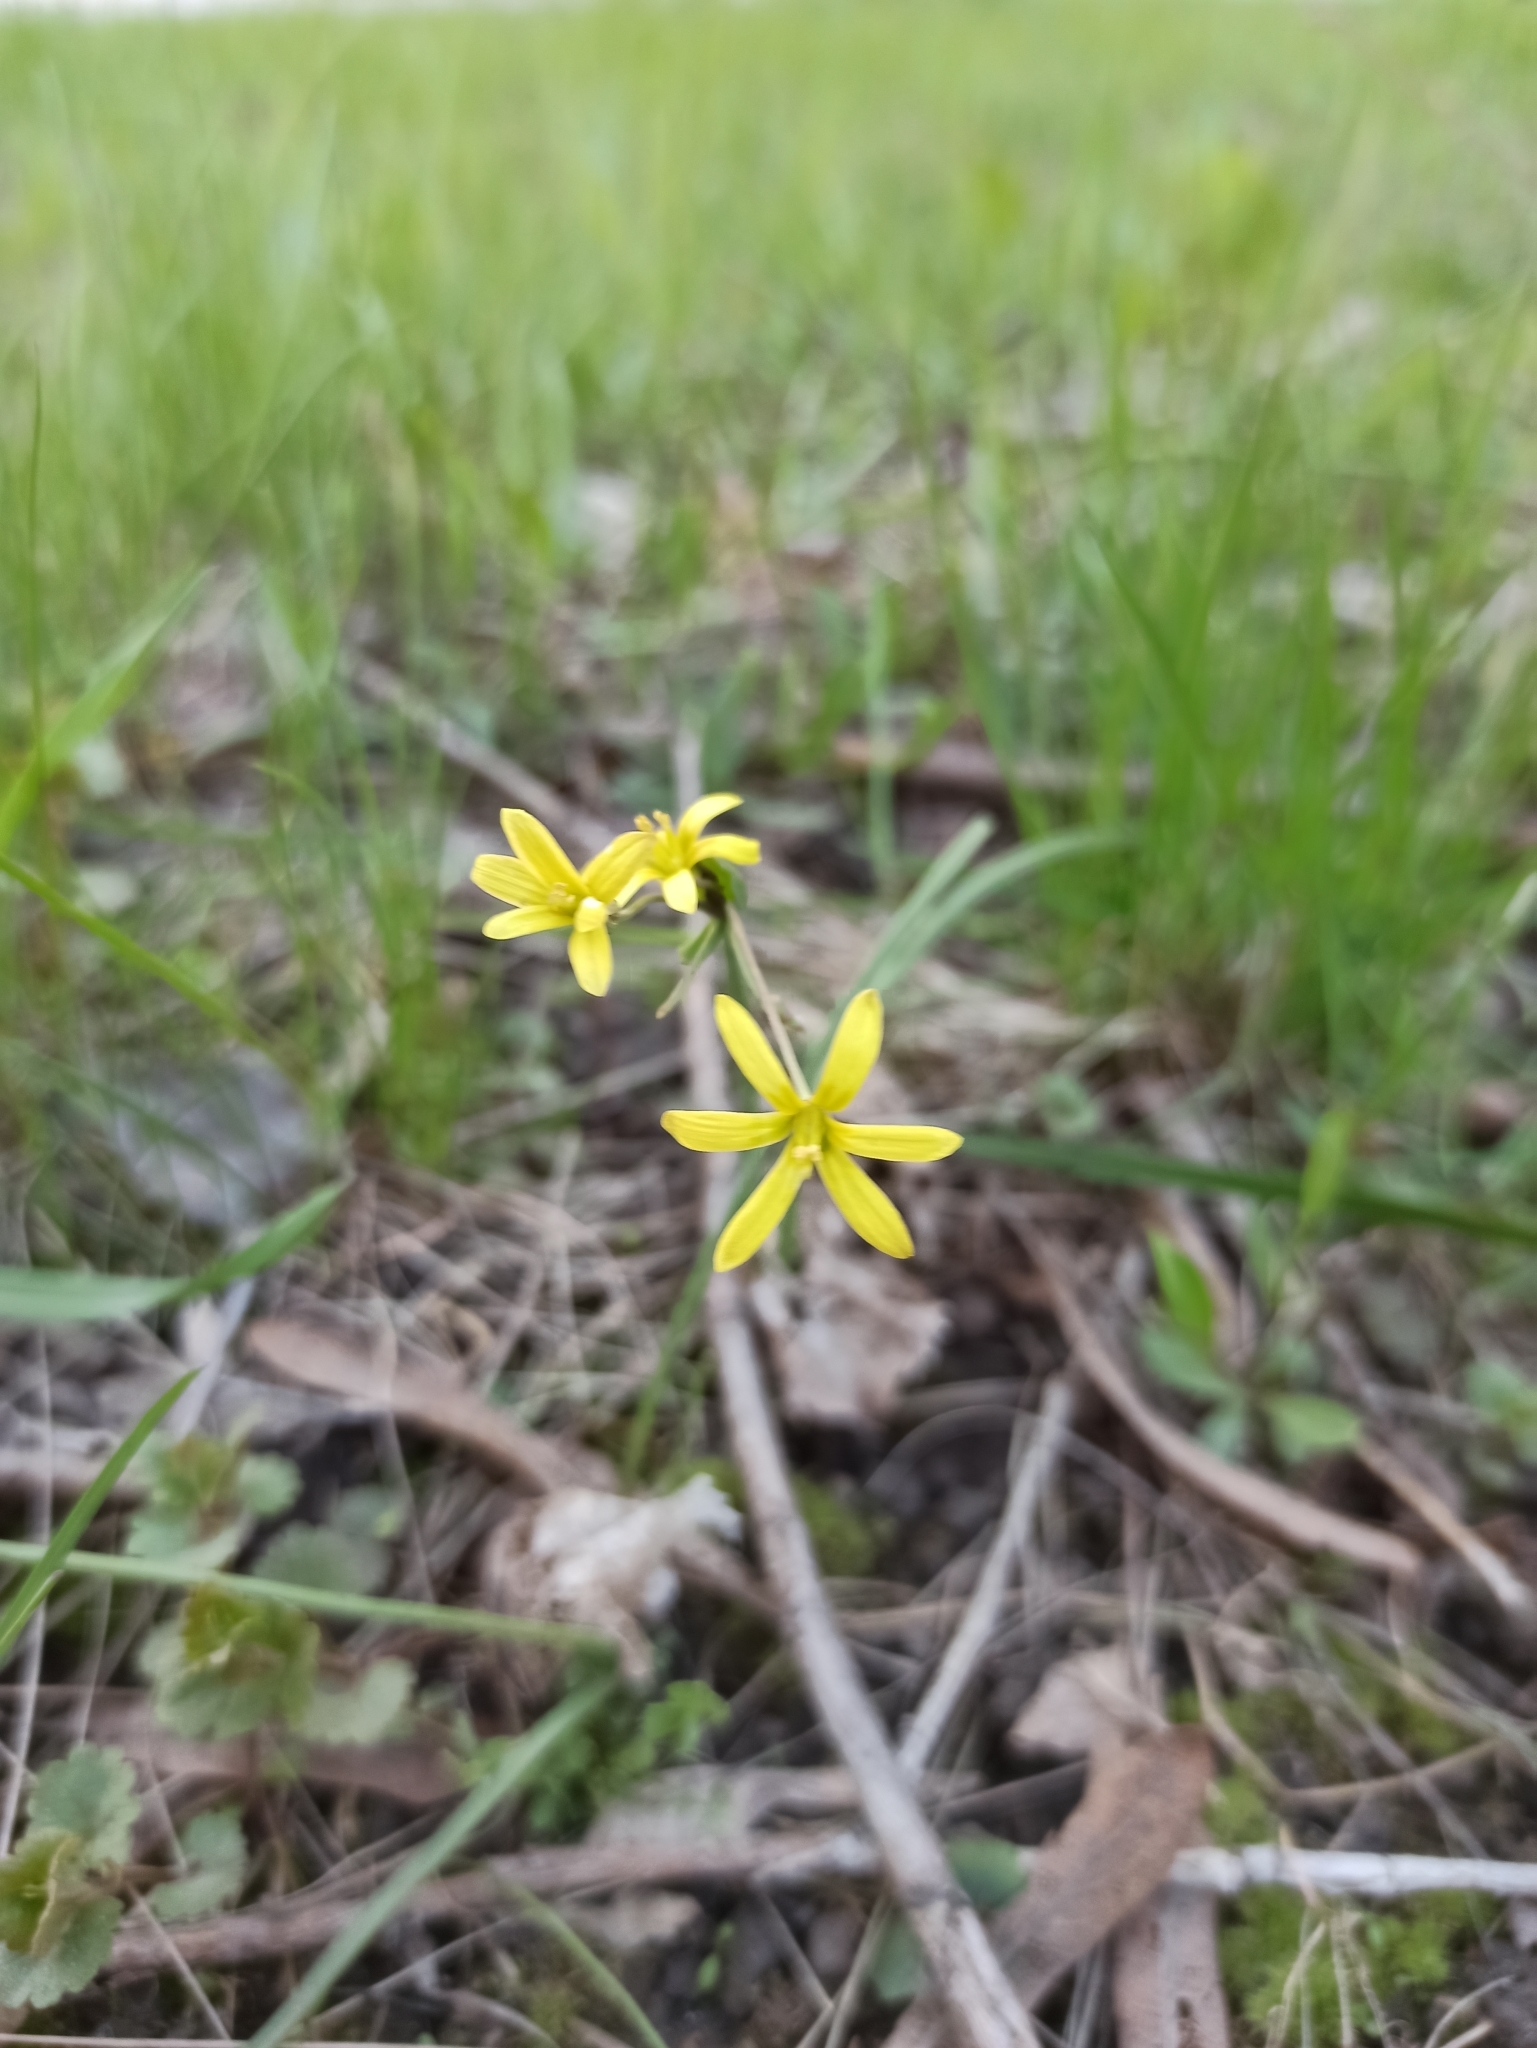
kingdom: Plantae
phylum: Tracheophyta
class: Liliopsida
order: Liliales
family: Liliaceae
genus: Gagea
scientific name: Gagea fragifera
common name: Lily
